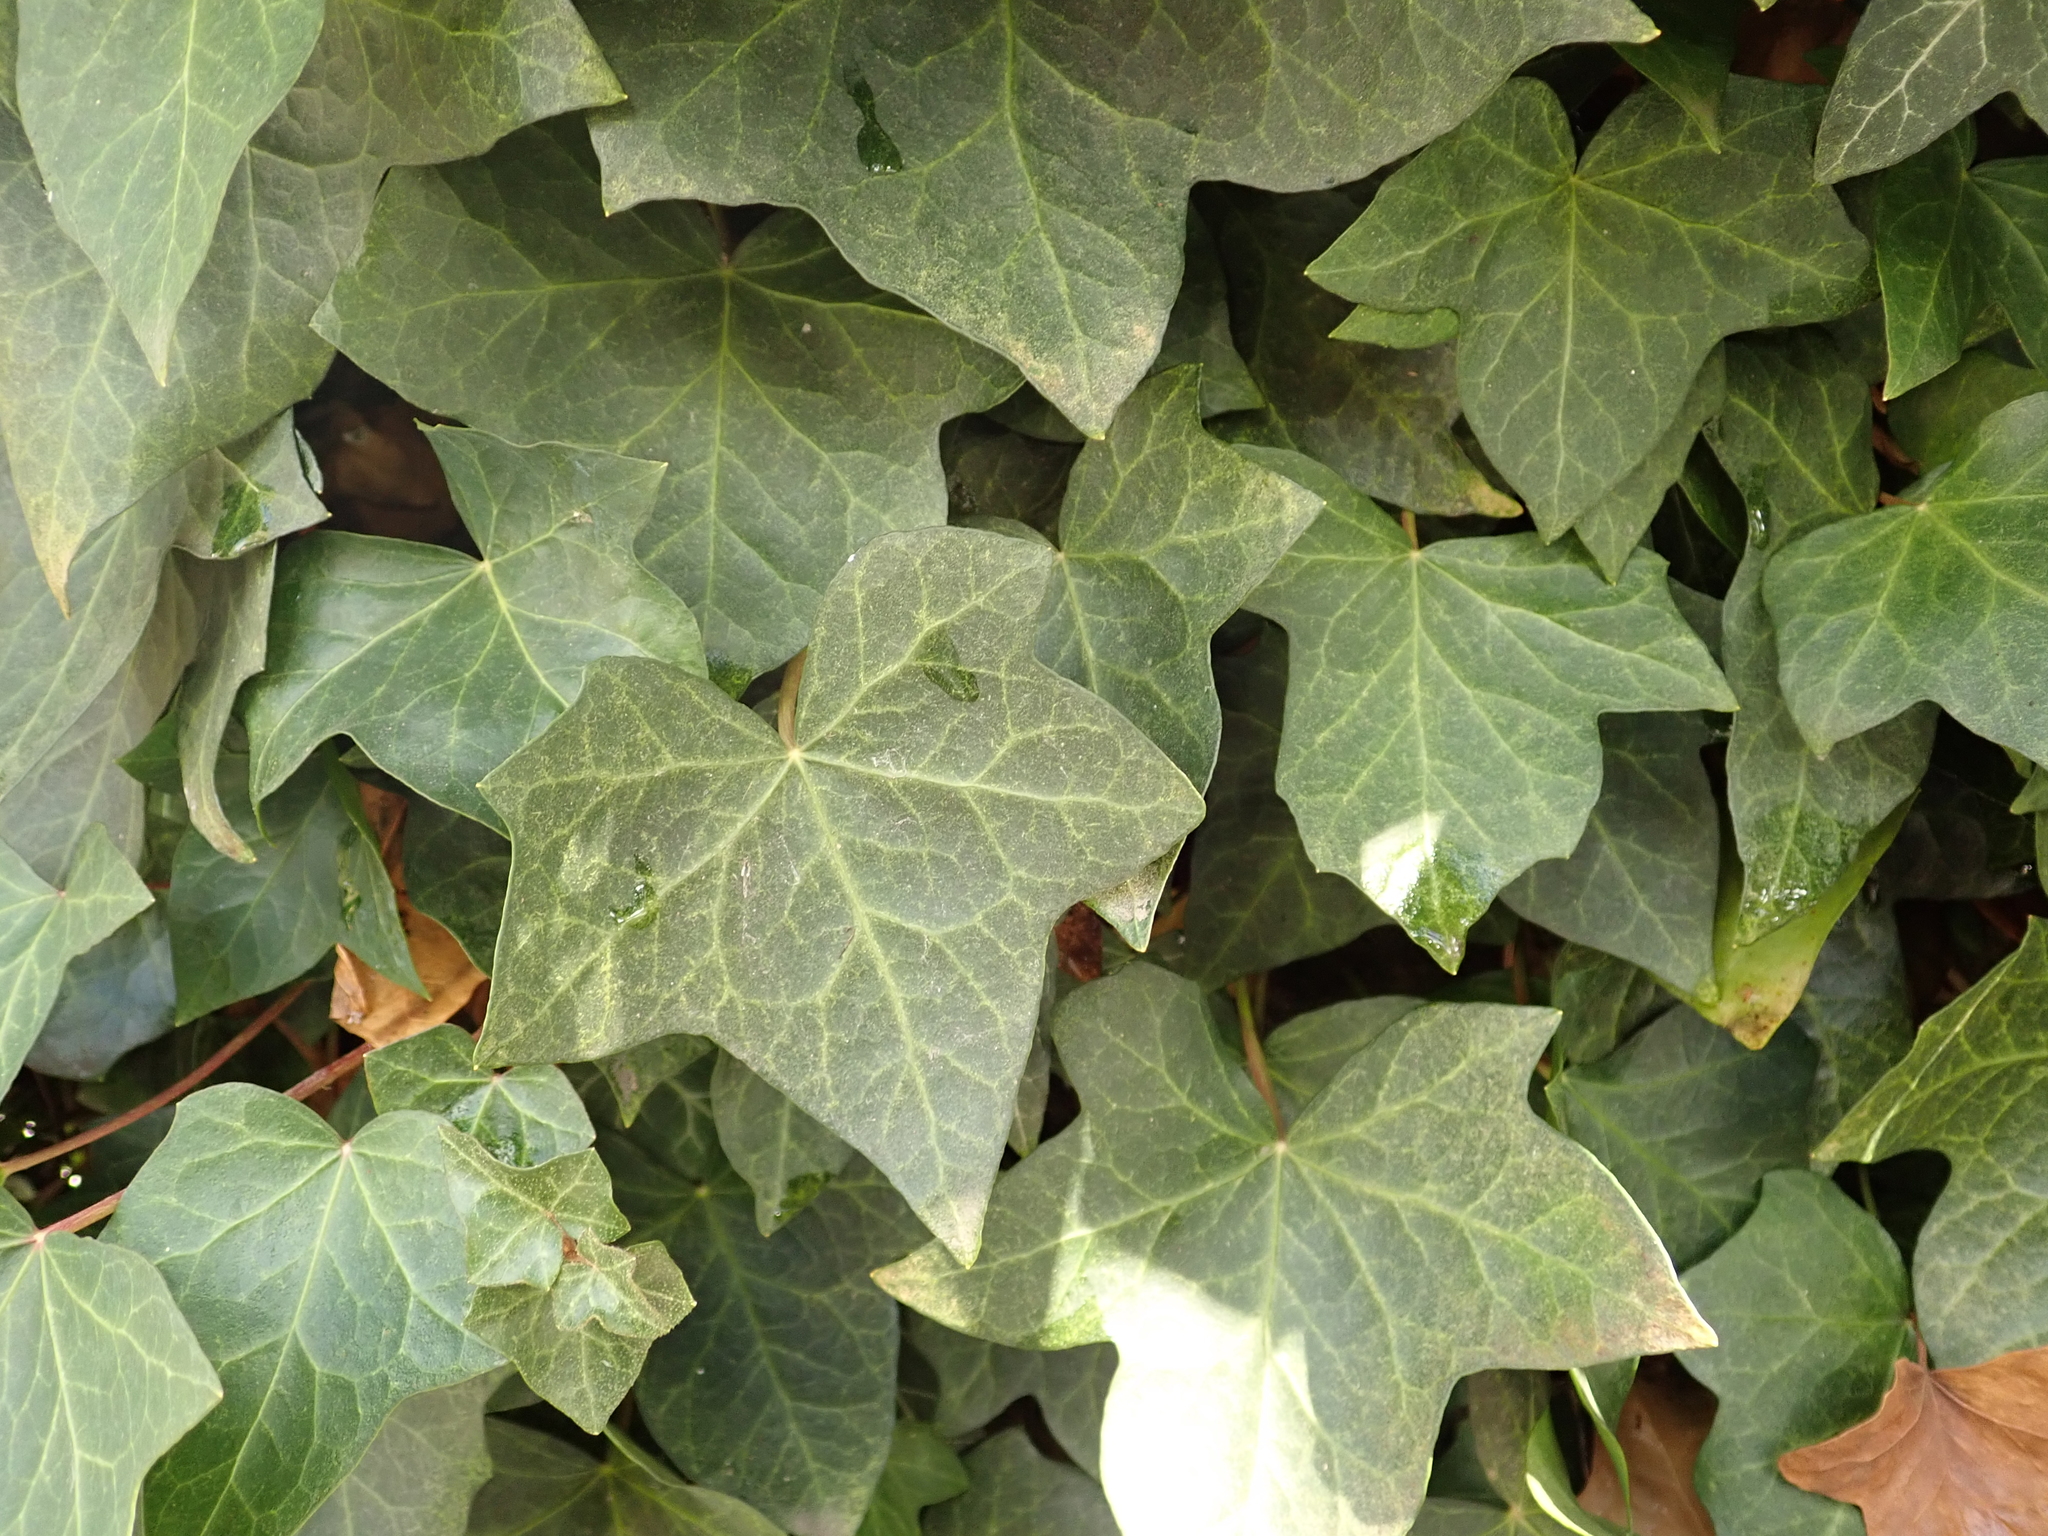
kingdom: Plantae
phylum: Tracheophyta
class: Magnoliopsida
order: Apiales
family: Araliaceae
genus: Hedera
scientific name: Hedera helix
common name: Ivy
